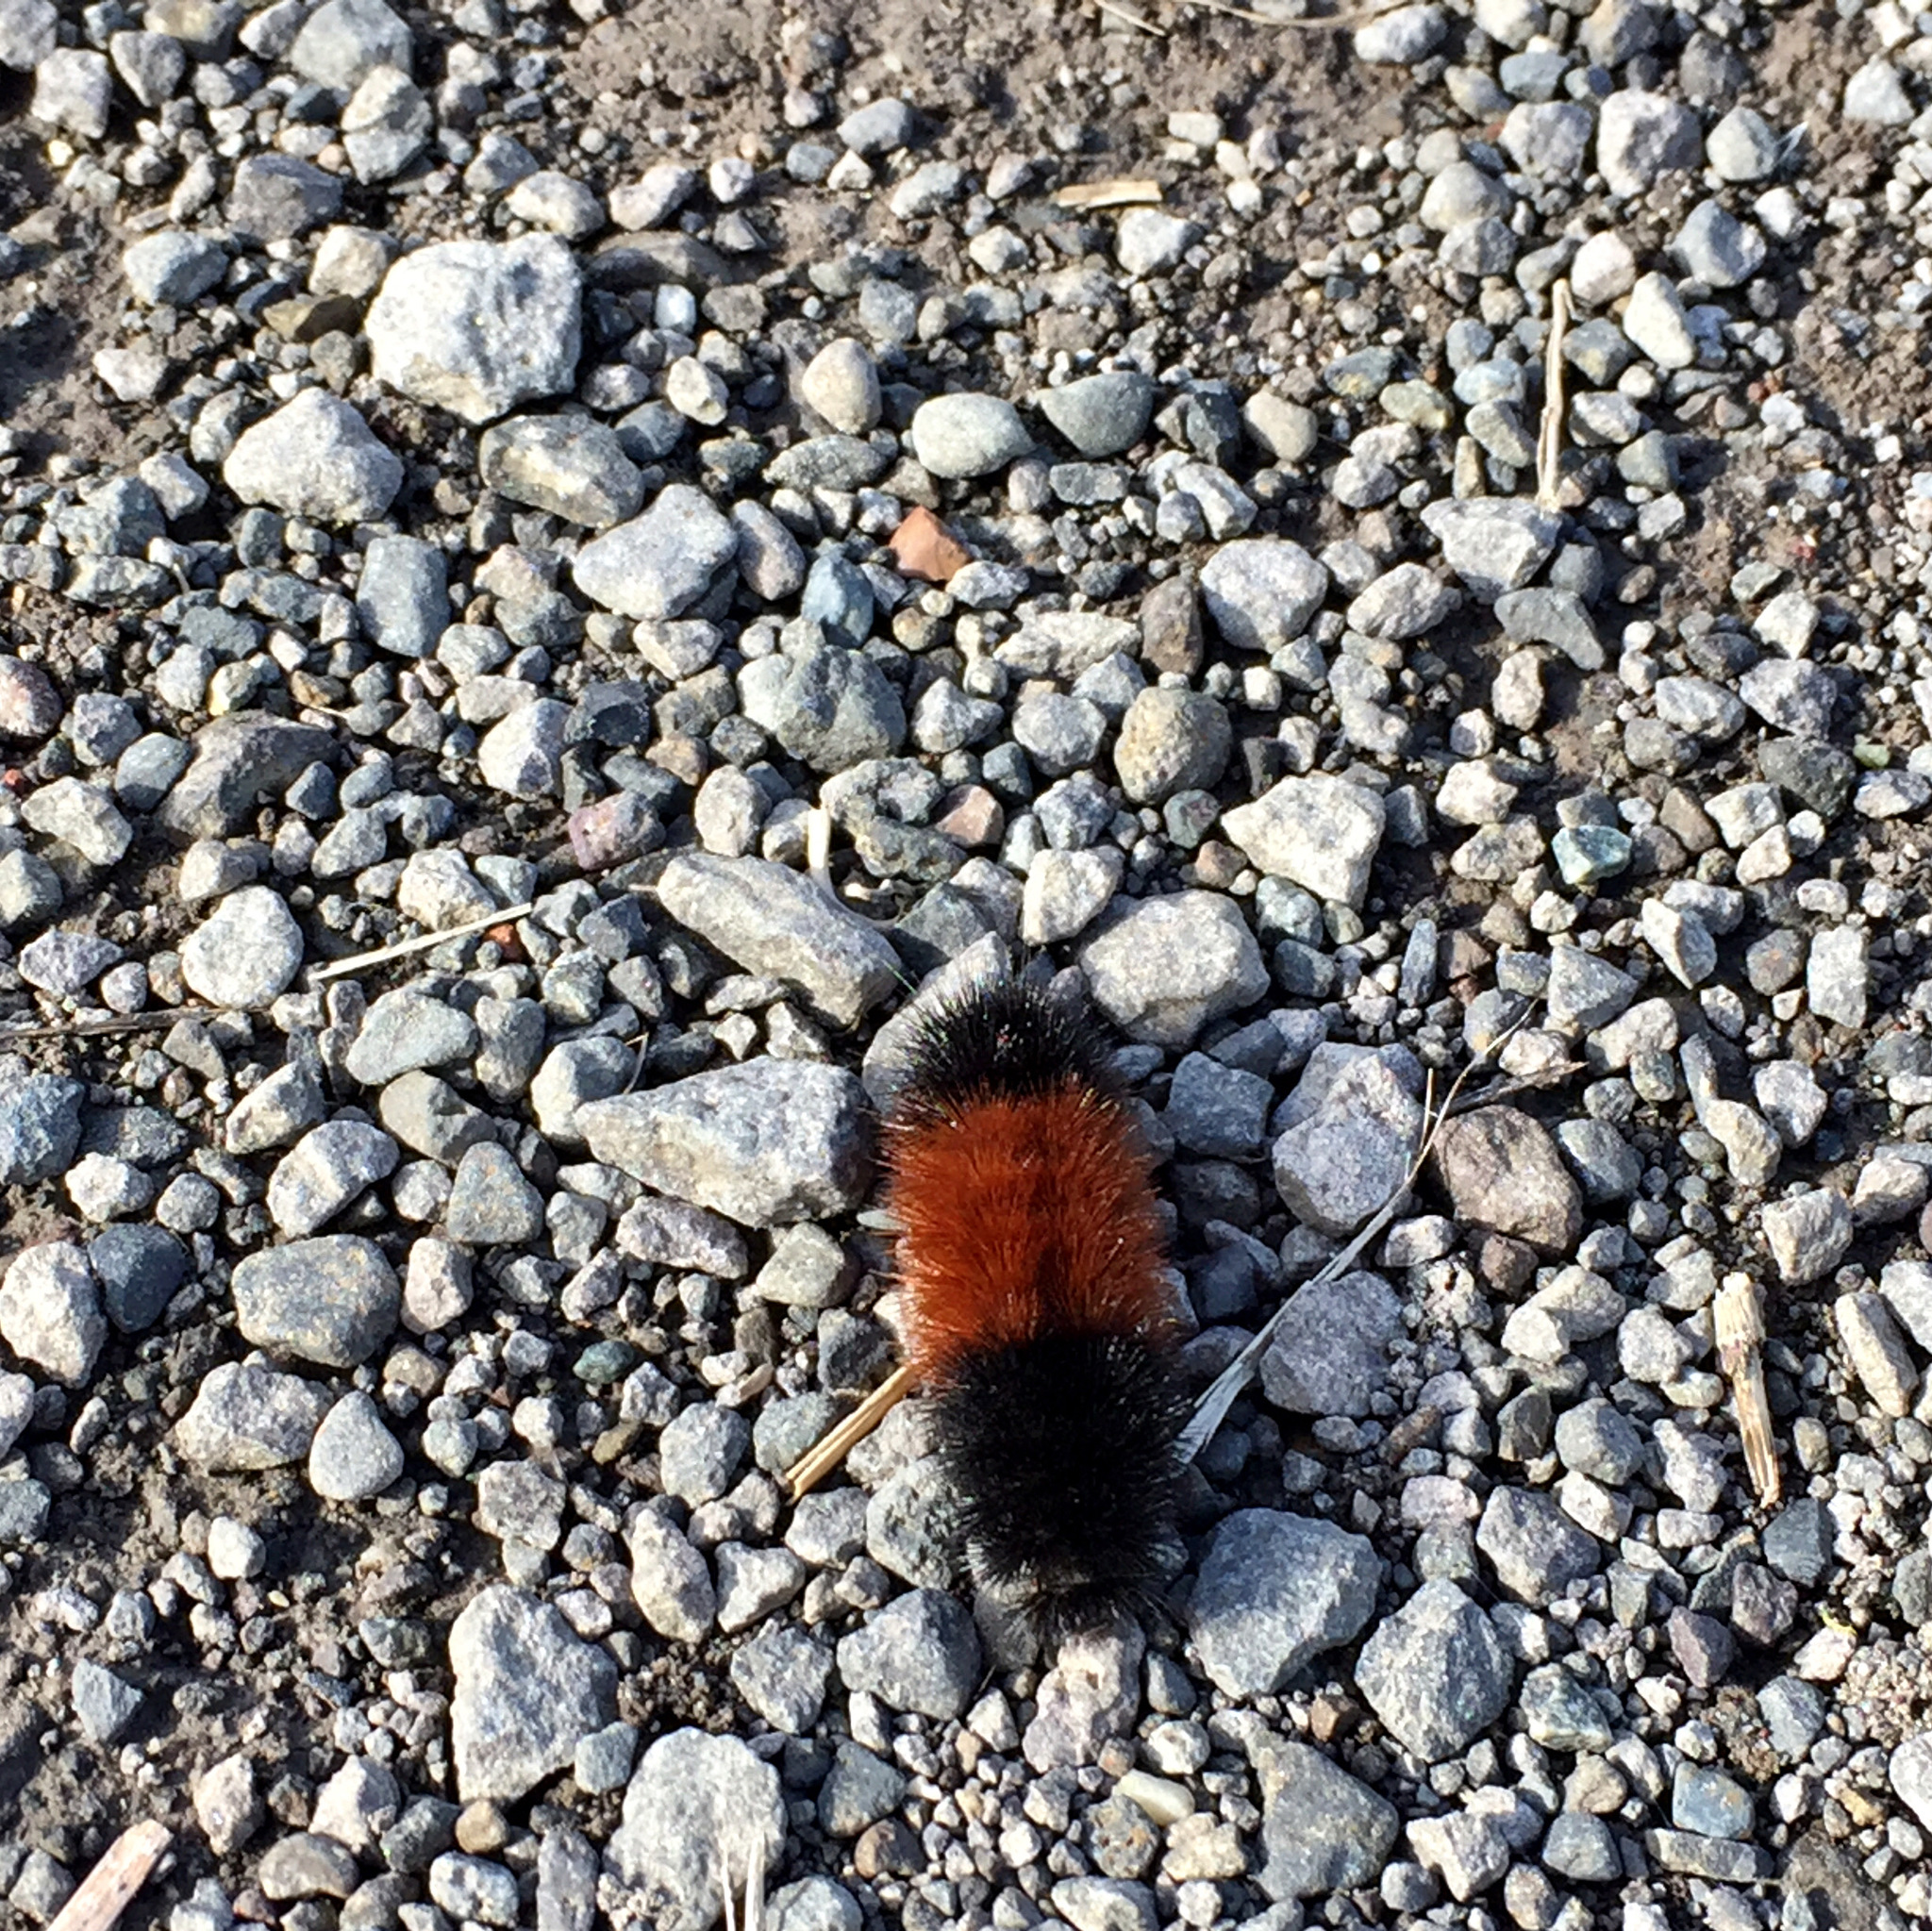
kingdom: Animalia
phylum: Arthropoda
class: Insecta
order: Lepidoptera
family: Erebidae
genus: Pyrrharctia
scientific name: Pyrrharctia isabella
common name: Isabella tiger moth
